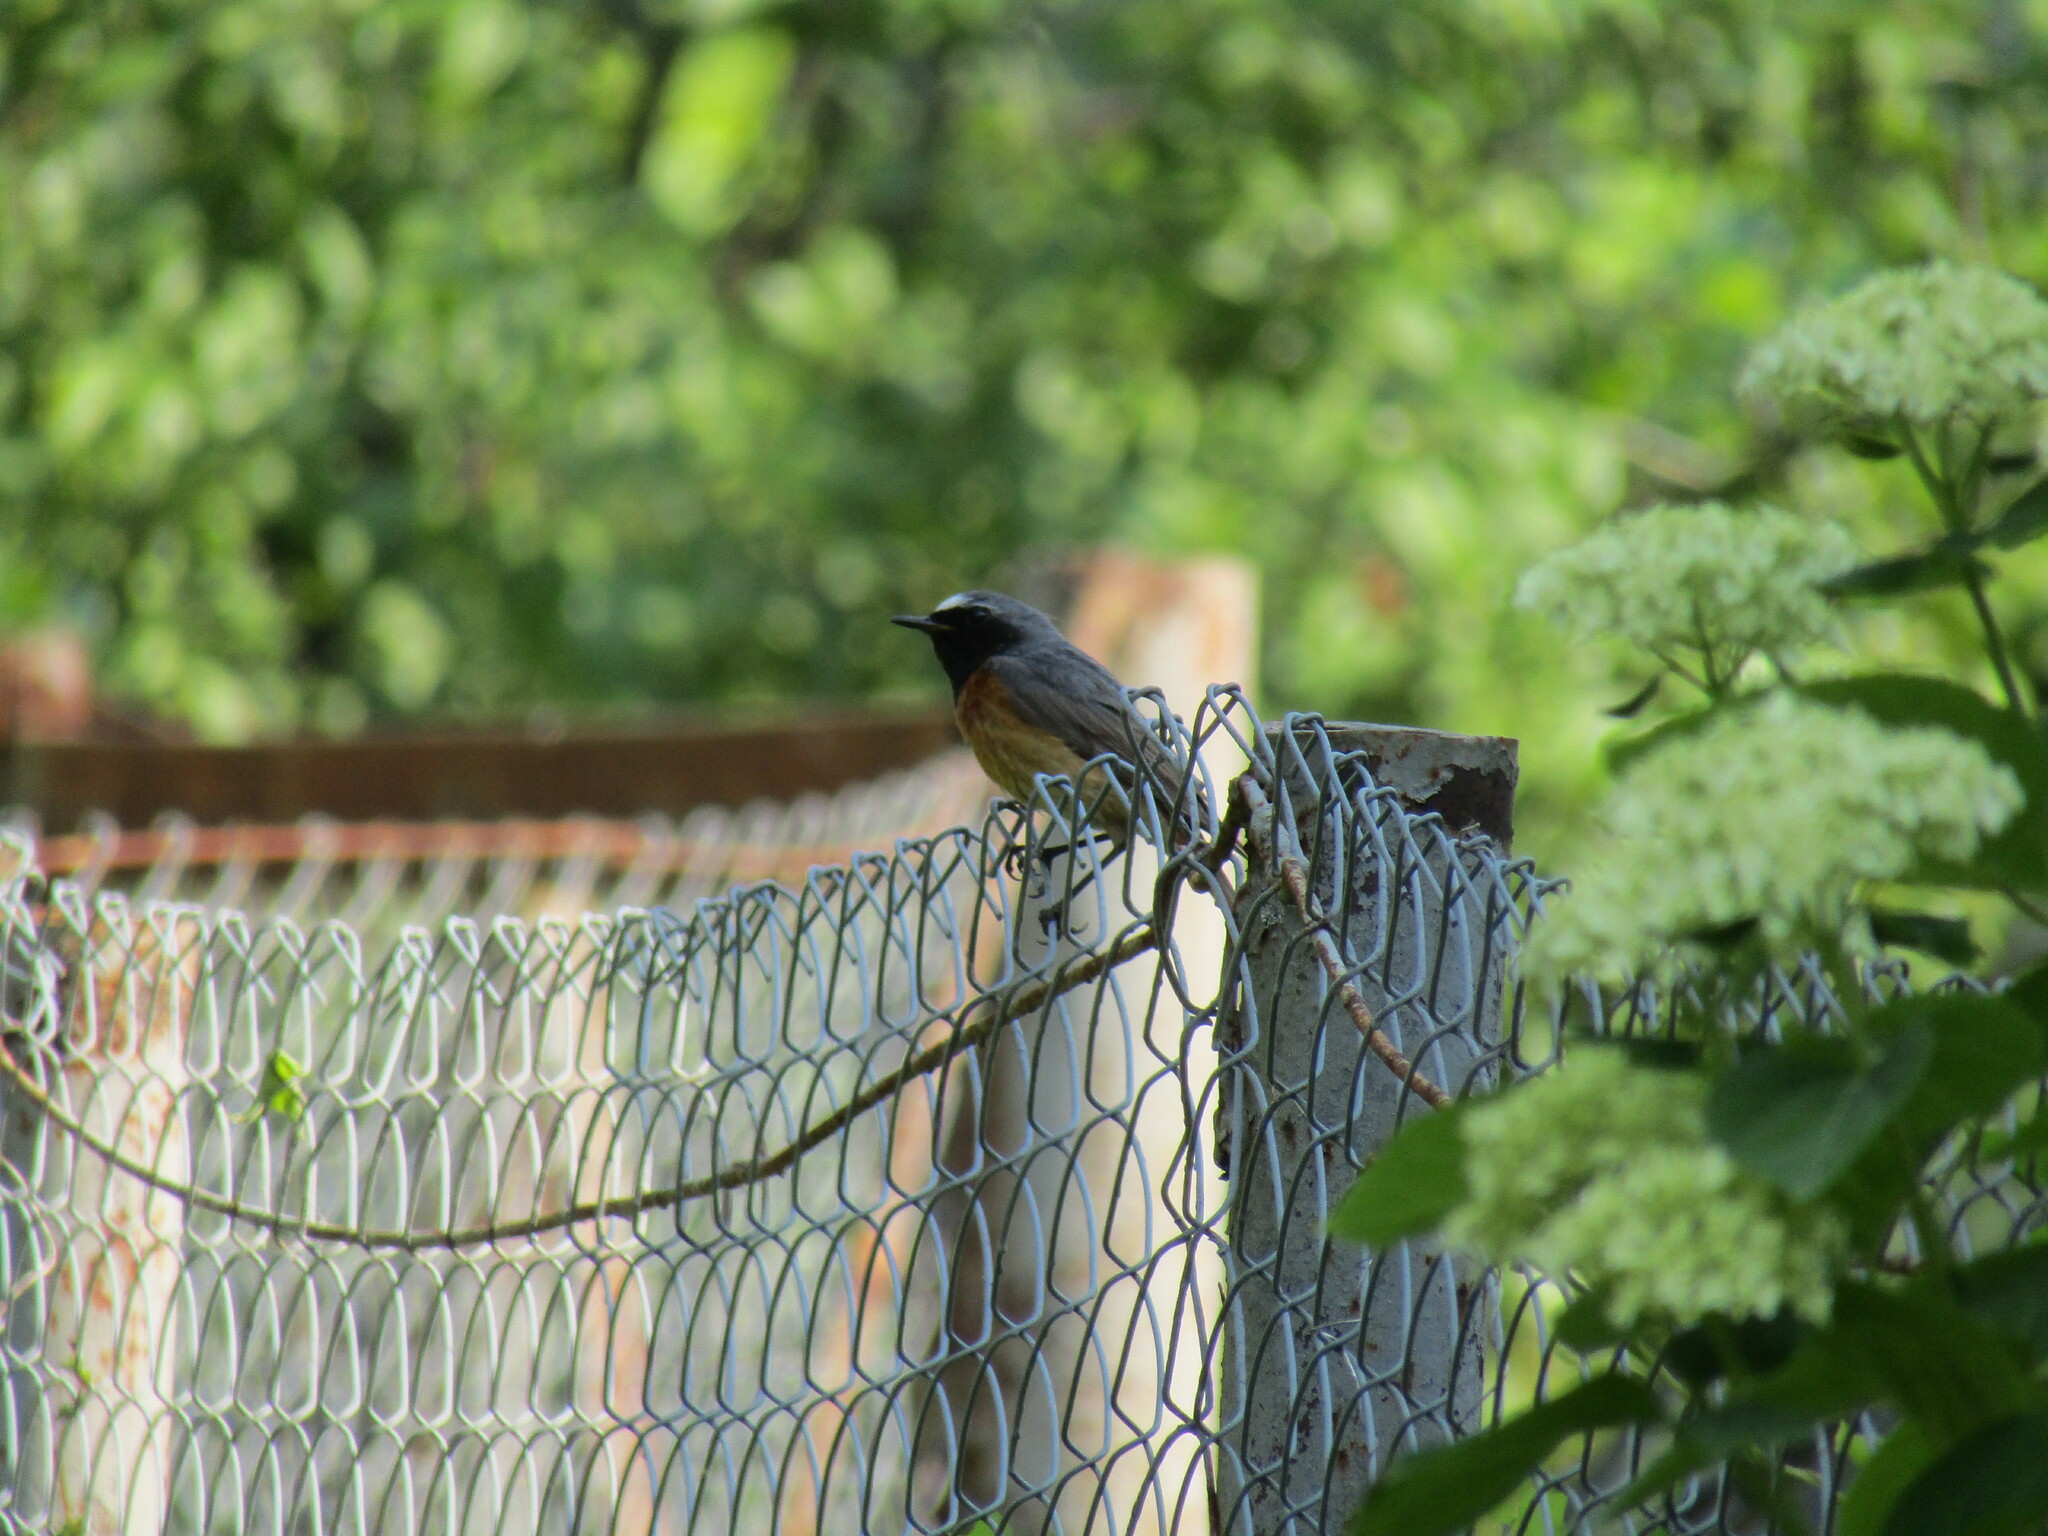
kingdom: Animalia
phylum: Chordata
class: Aves
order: Passeriformes
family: Muscicapidae
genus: Phoenicurus
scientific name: Phoenicurus phoenicurus
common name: Common redstart
